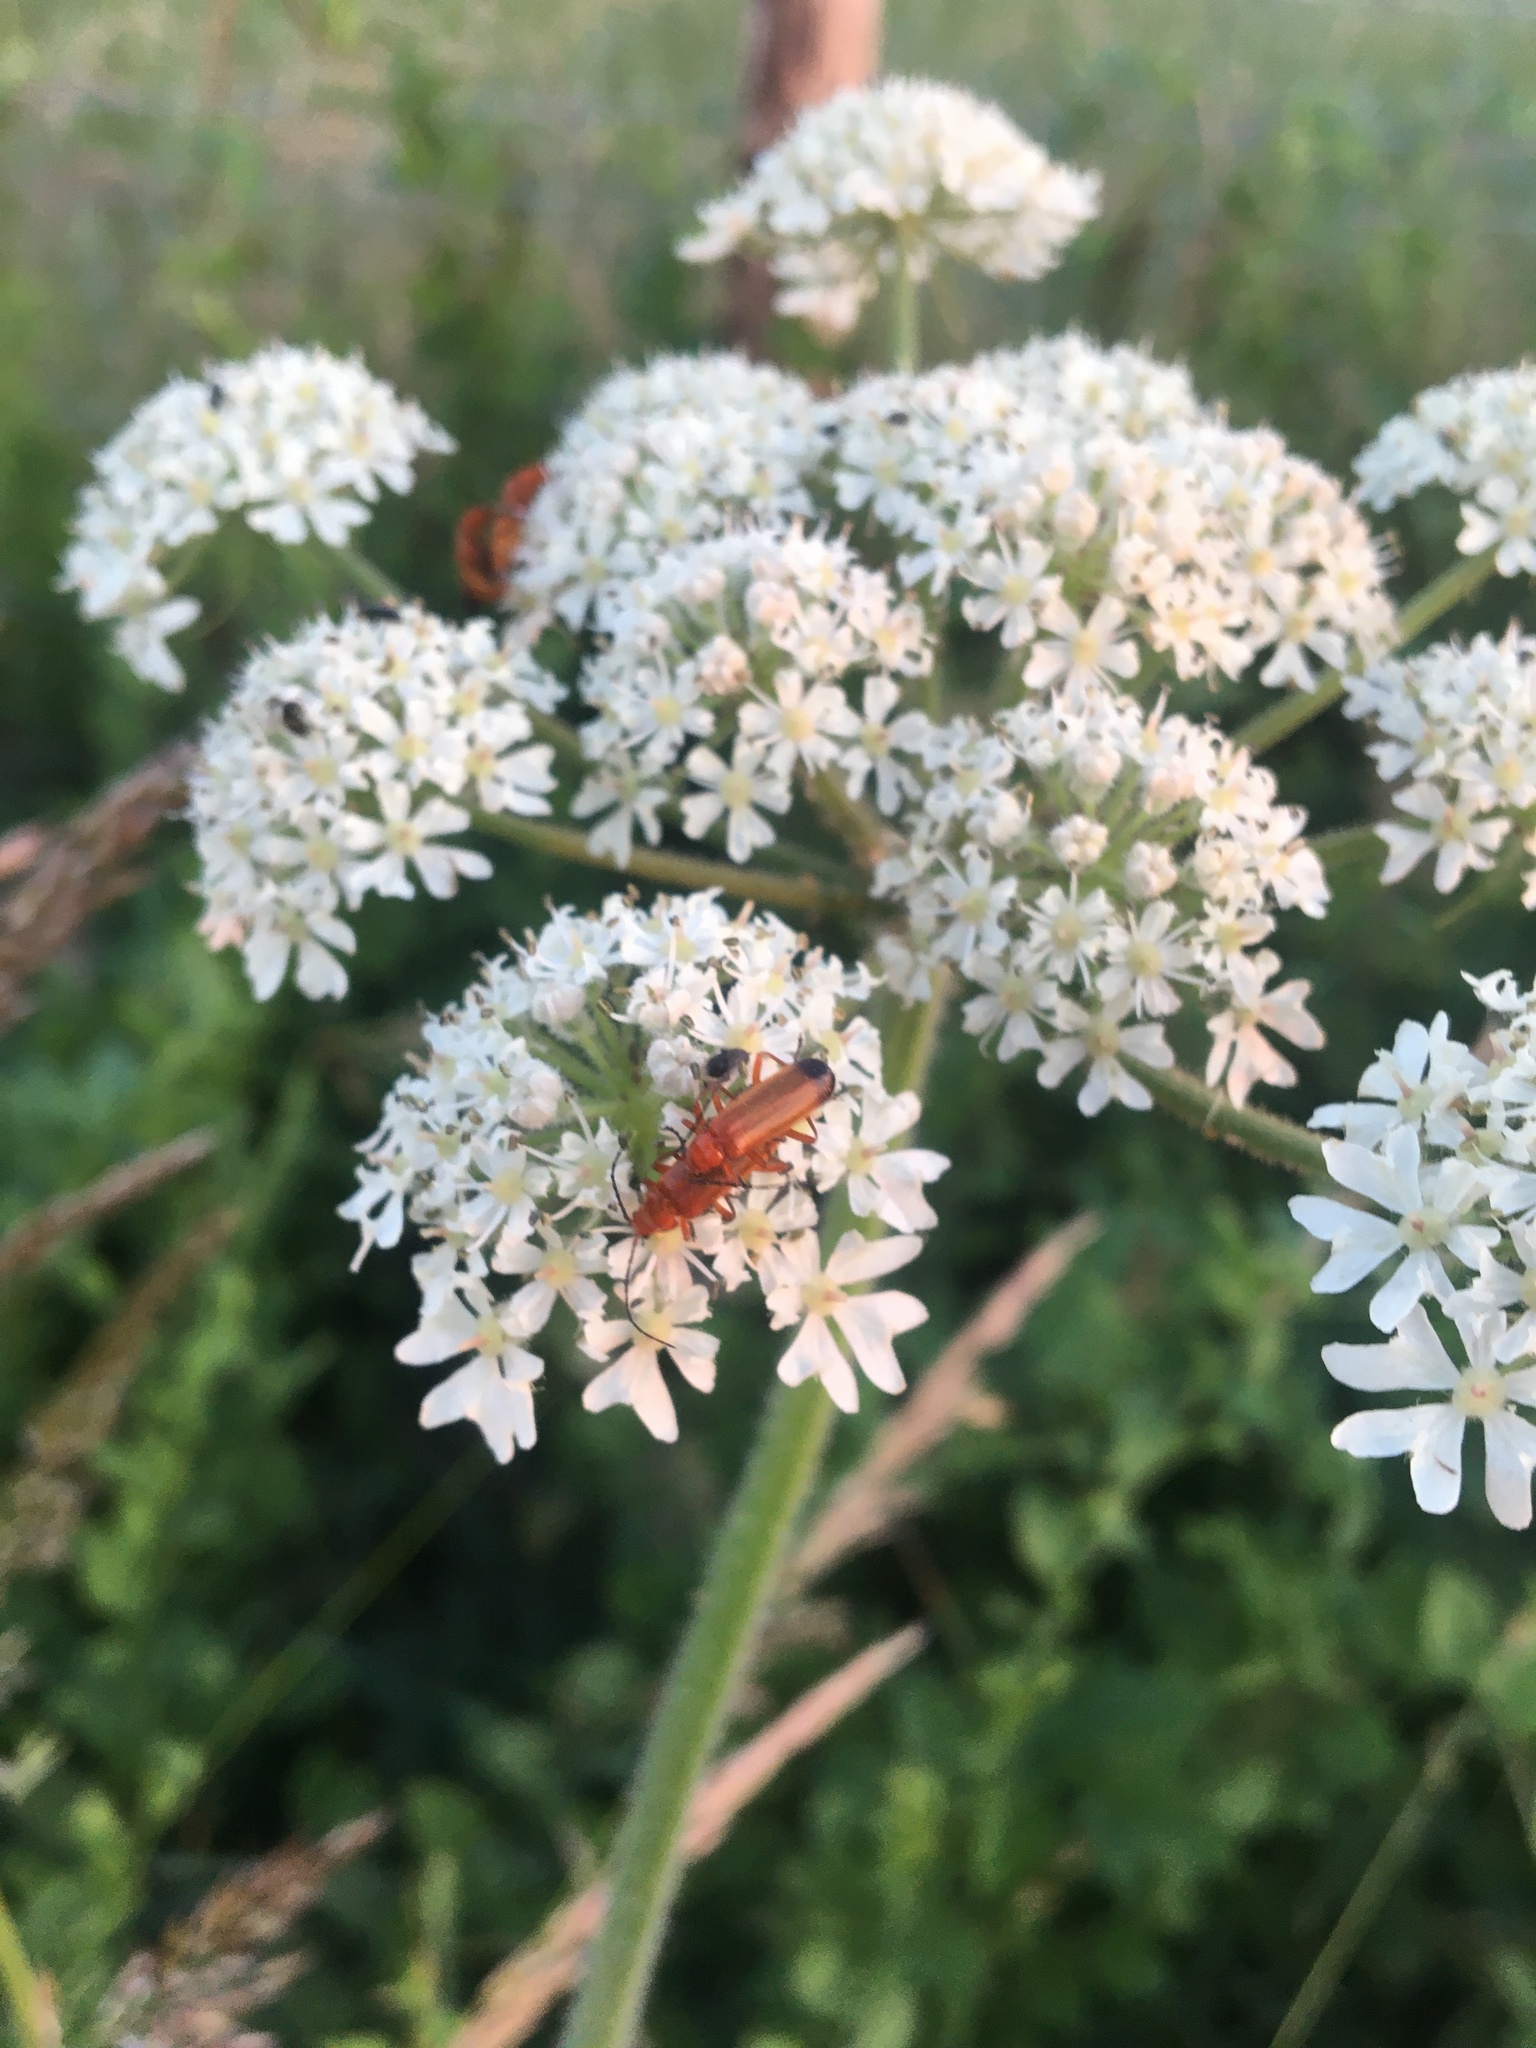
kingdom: Animalia
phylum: Arthropoda
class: Insecta
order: Coleoptera
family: Cantharidae
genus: Rhagonycha
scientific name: Rhagonycha fulva
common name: Common red soldier beetle
